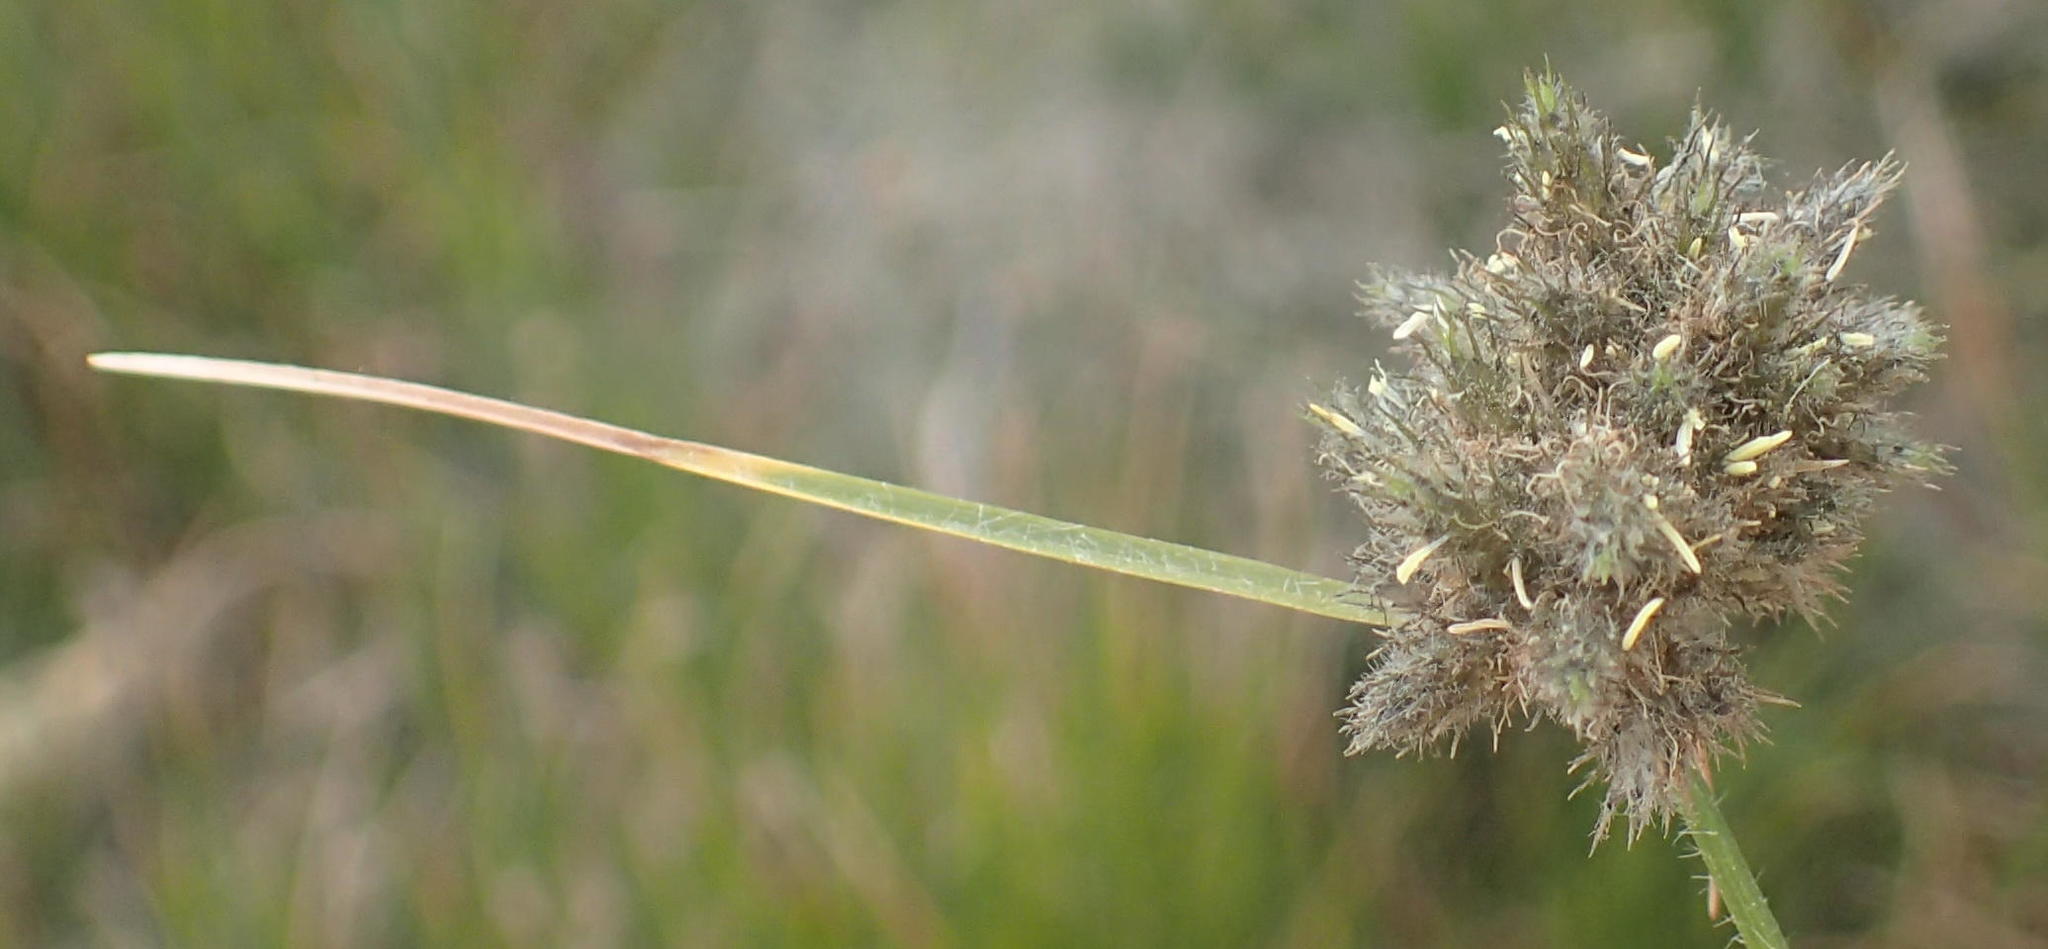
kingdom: Plantae
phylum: Tracheophyta
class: Liliopsida
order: Poales
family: Cyperaceae
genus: Fuirena
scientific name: Fuirena hirsuta
